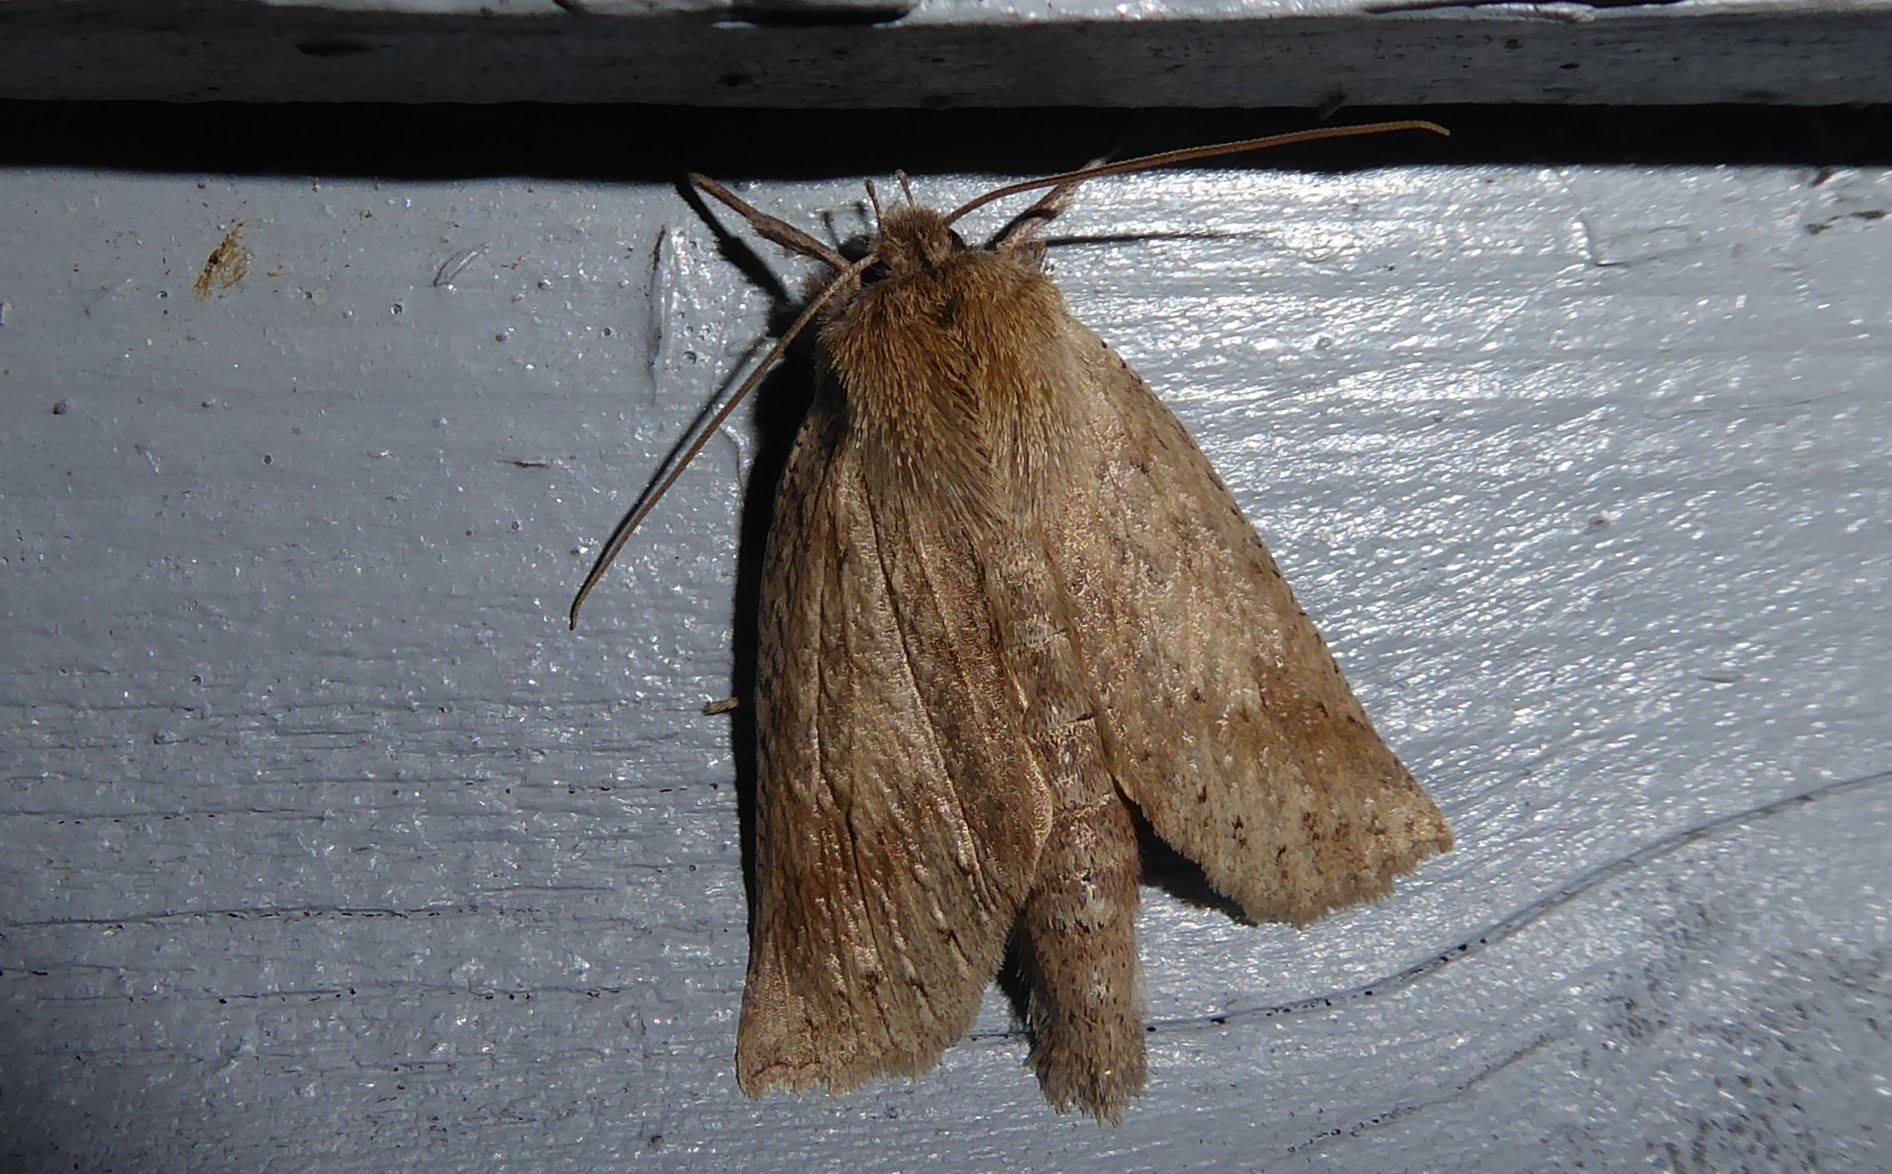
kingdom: Animalia
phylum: Arthropoda
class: Insecta
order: Lepidoptera
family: Geometridae
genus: Declana
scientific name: Declana leptomera
